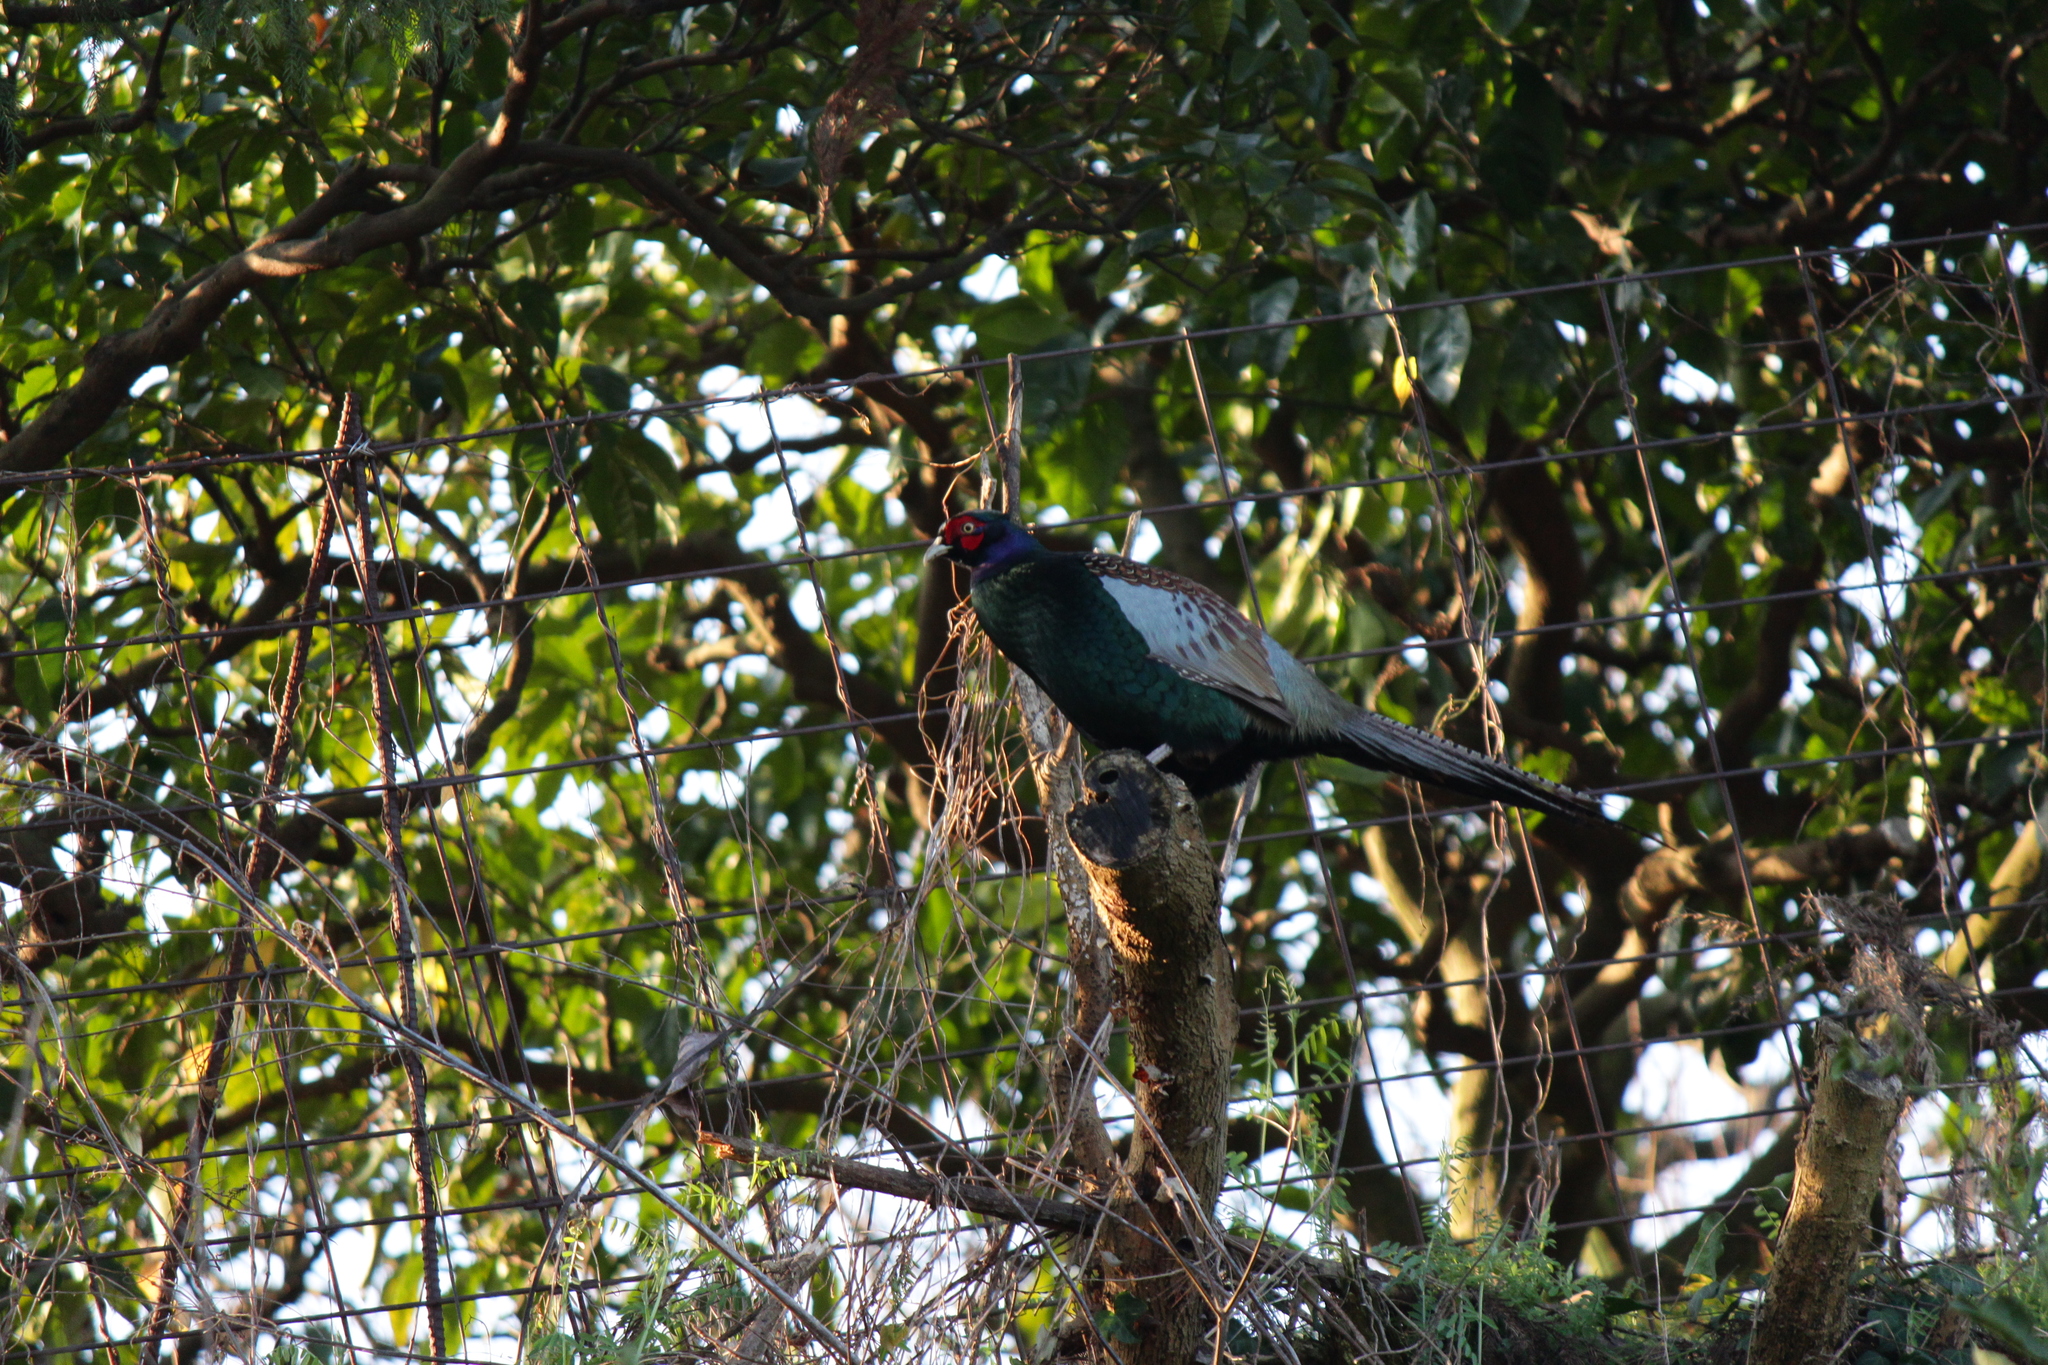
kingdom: Animalia
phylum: Chordata
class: Aves
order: Galliformes
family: Phasianidae
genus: Phasianus
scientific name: Phasianus versicolor
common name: Green pheasant
